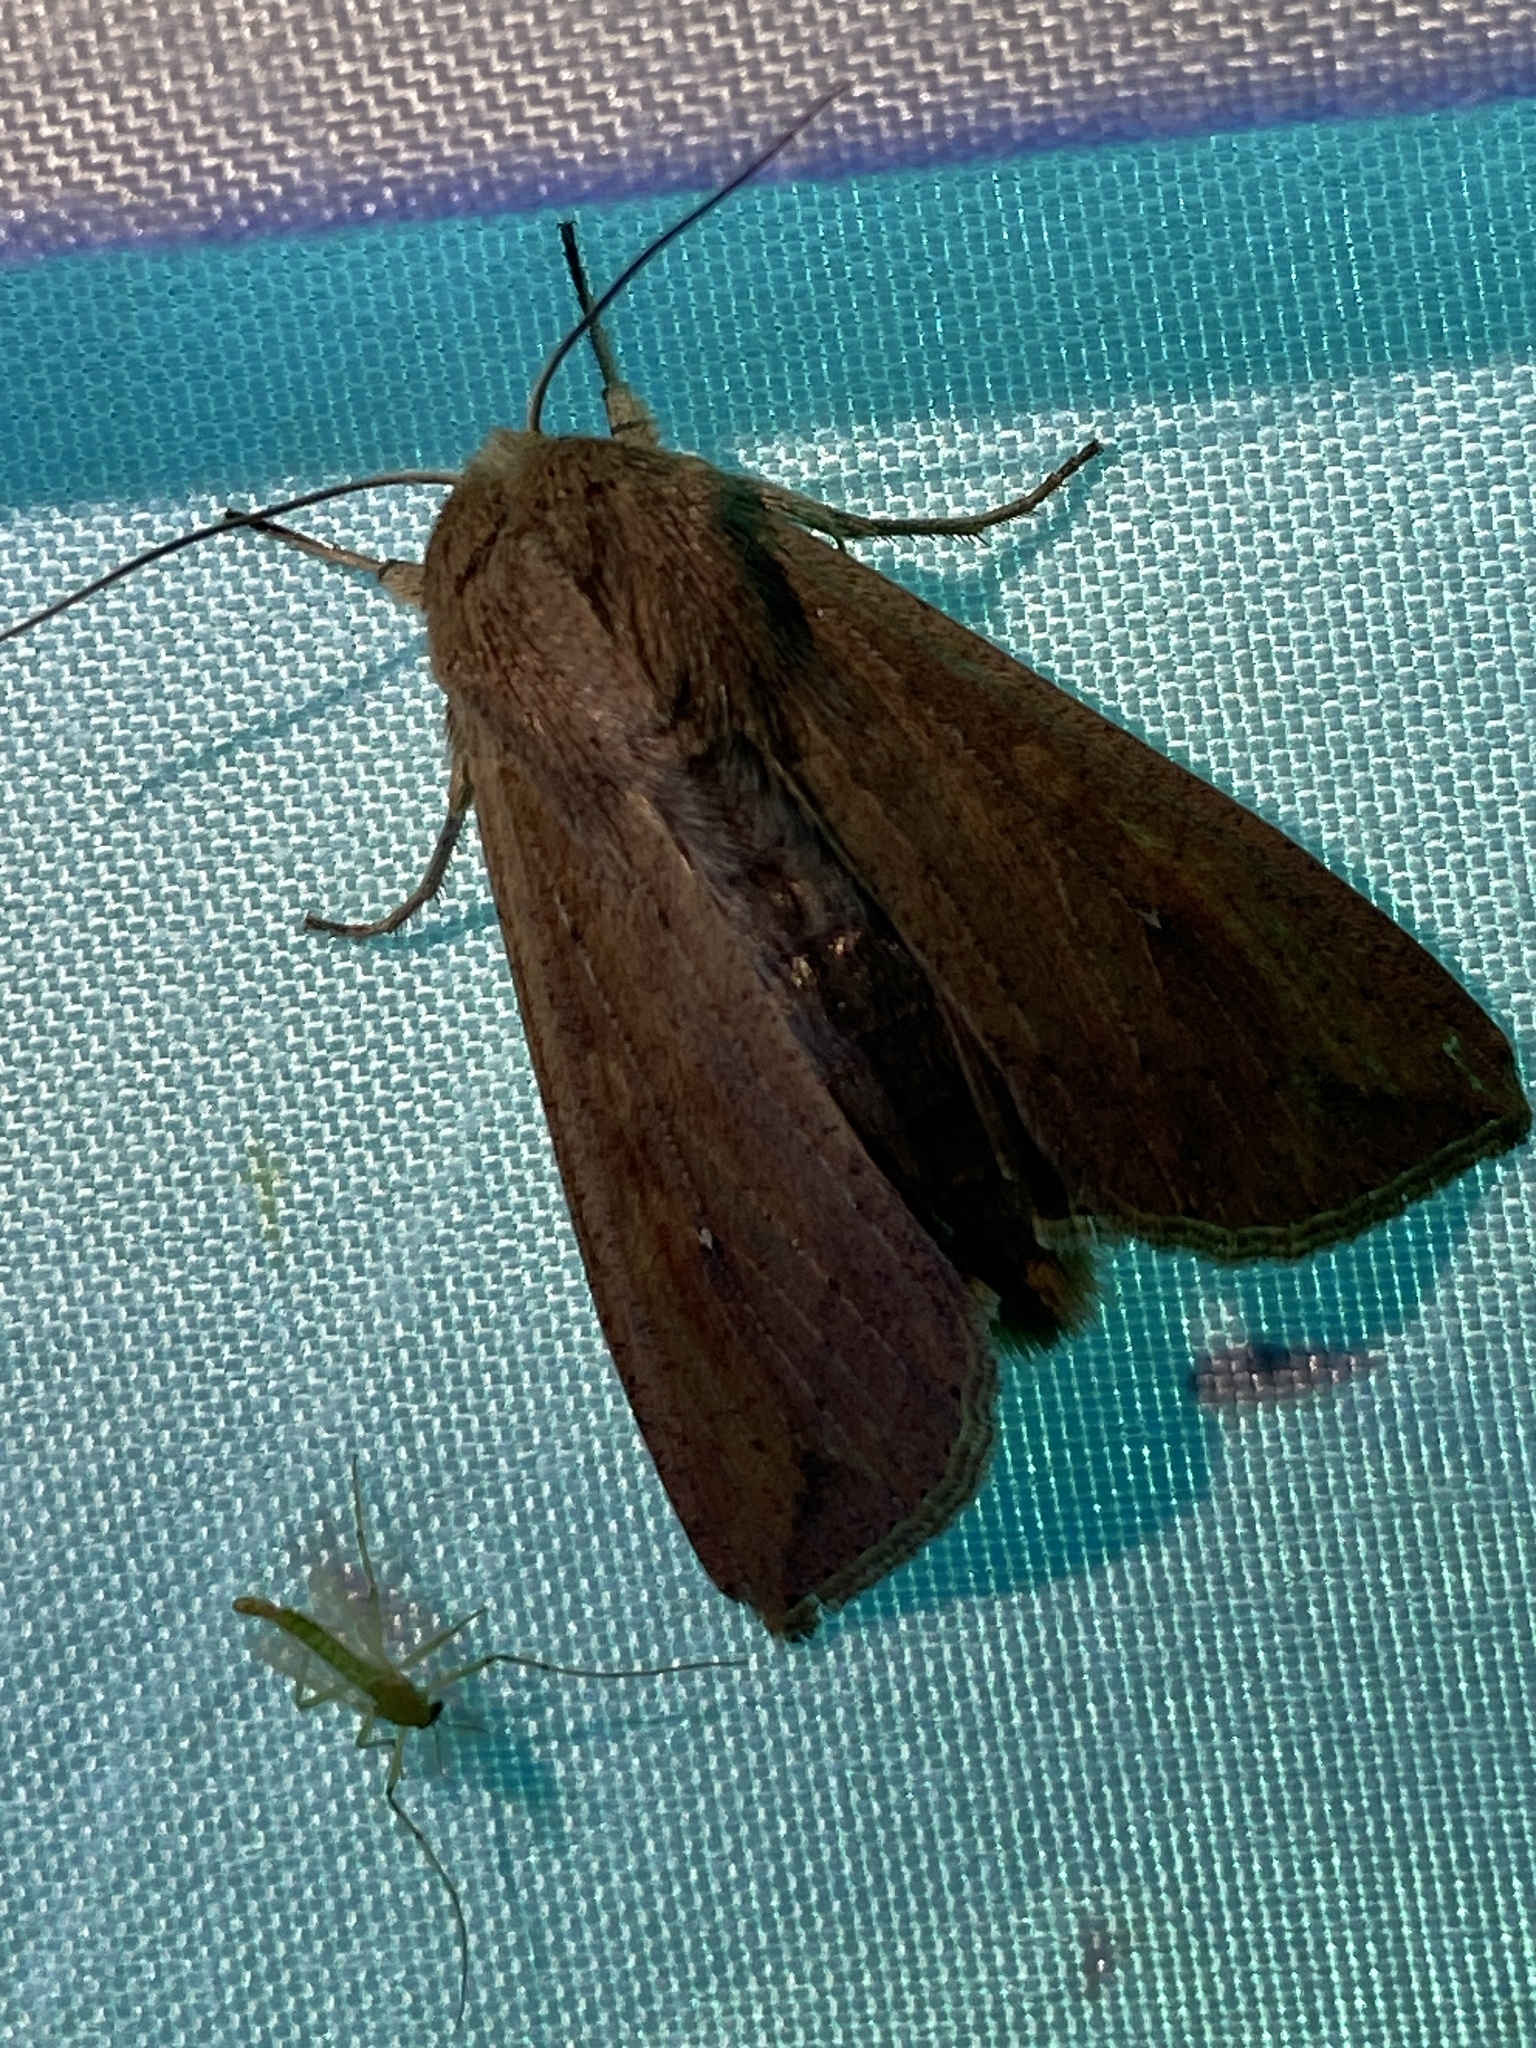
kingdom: Animalia
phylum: Arthropoda
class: Insecta
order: Lepidoptera
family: Noctuidae
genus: Mythimna
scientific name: Mythimna unipuncta
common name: White-speck
